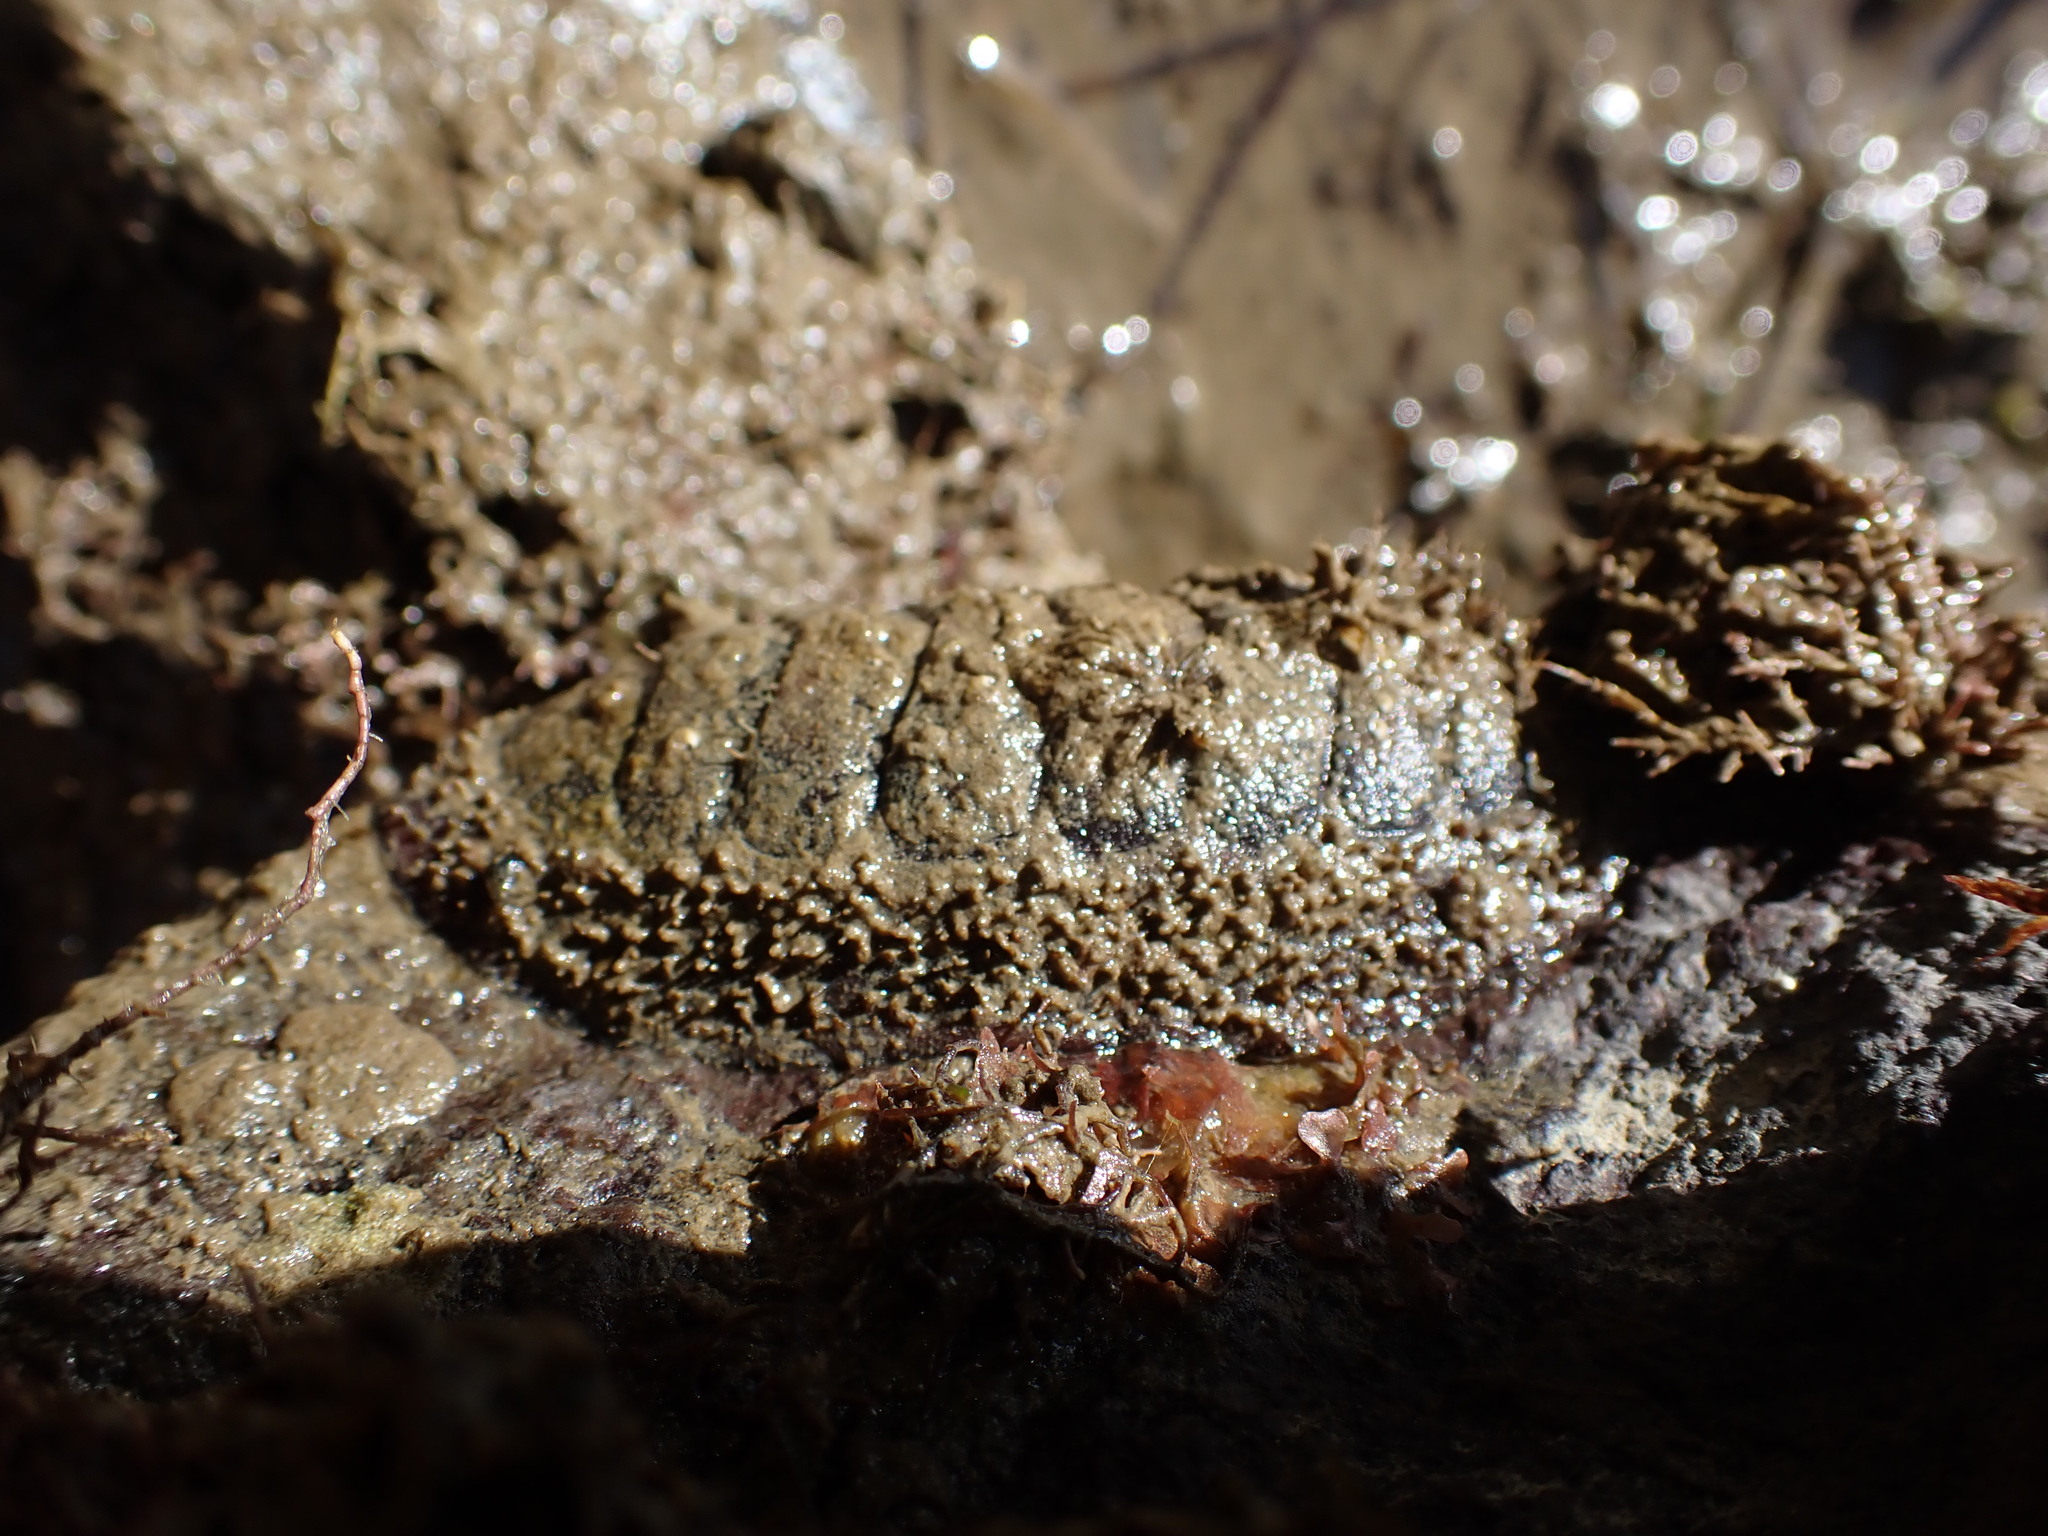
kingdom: Animalia
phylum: Mollusca
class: Polyplacophora
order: Callochitonida
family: Callochitonidae
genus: Eudoxochiton
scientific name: Eudoxochiton nobilis
